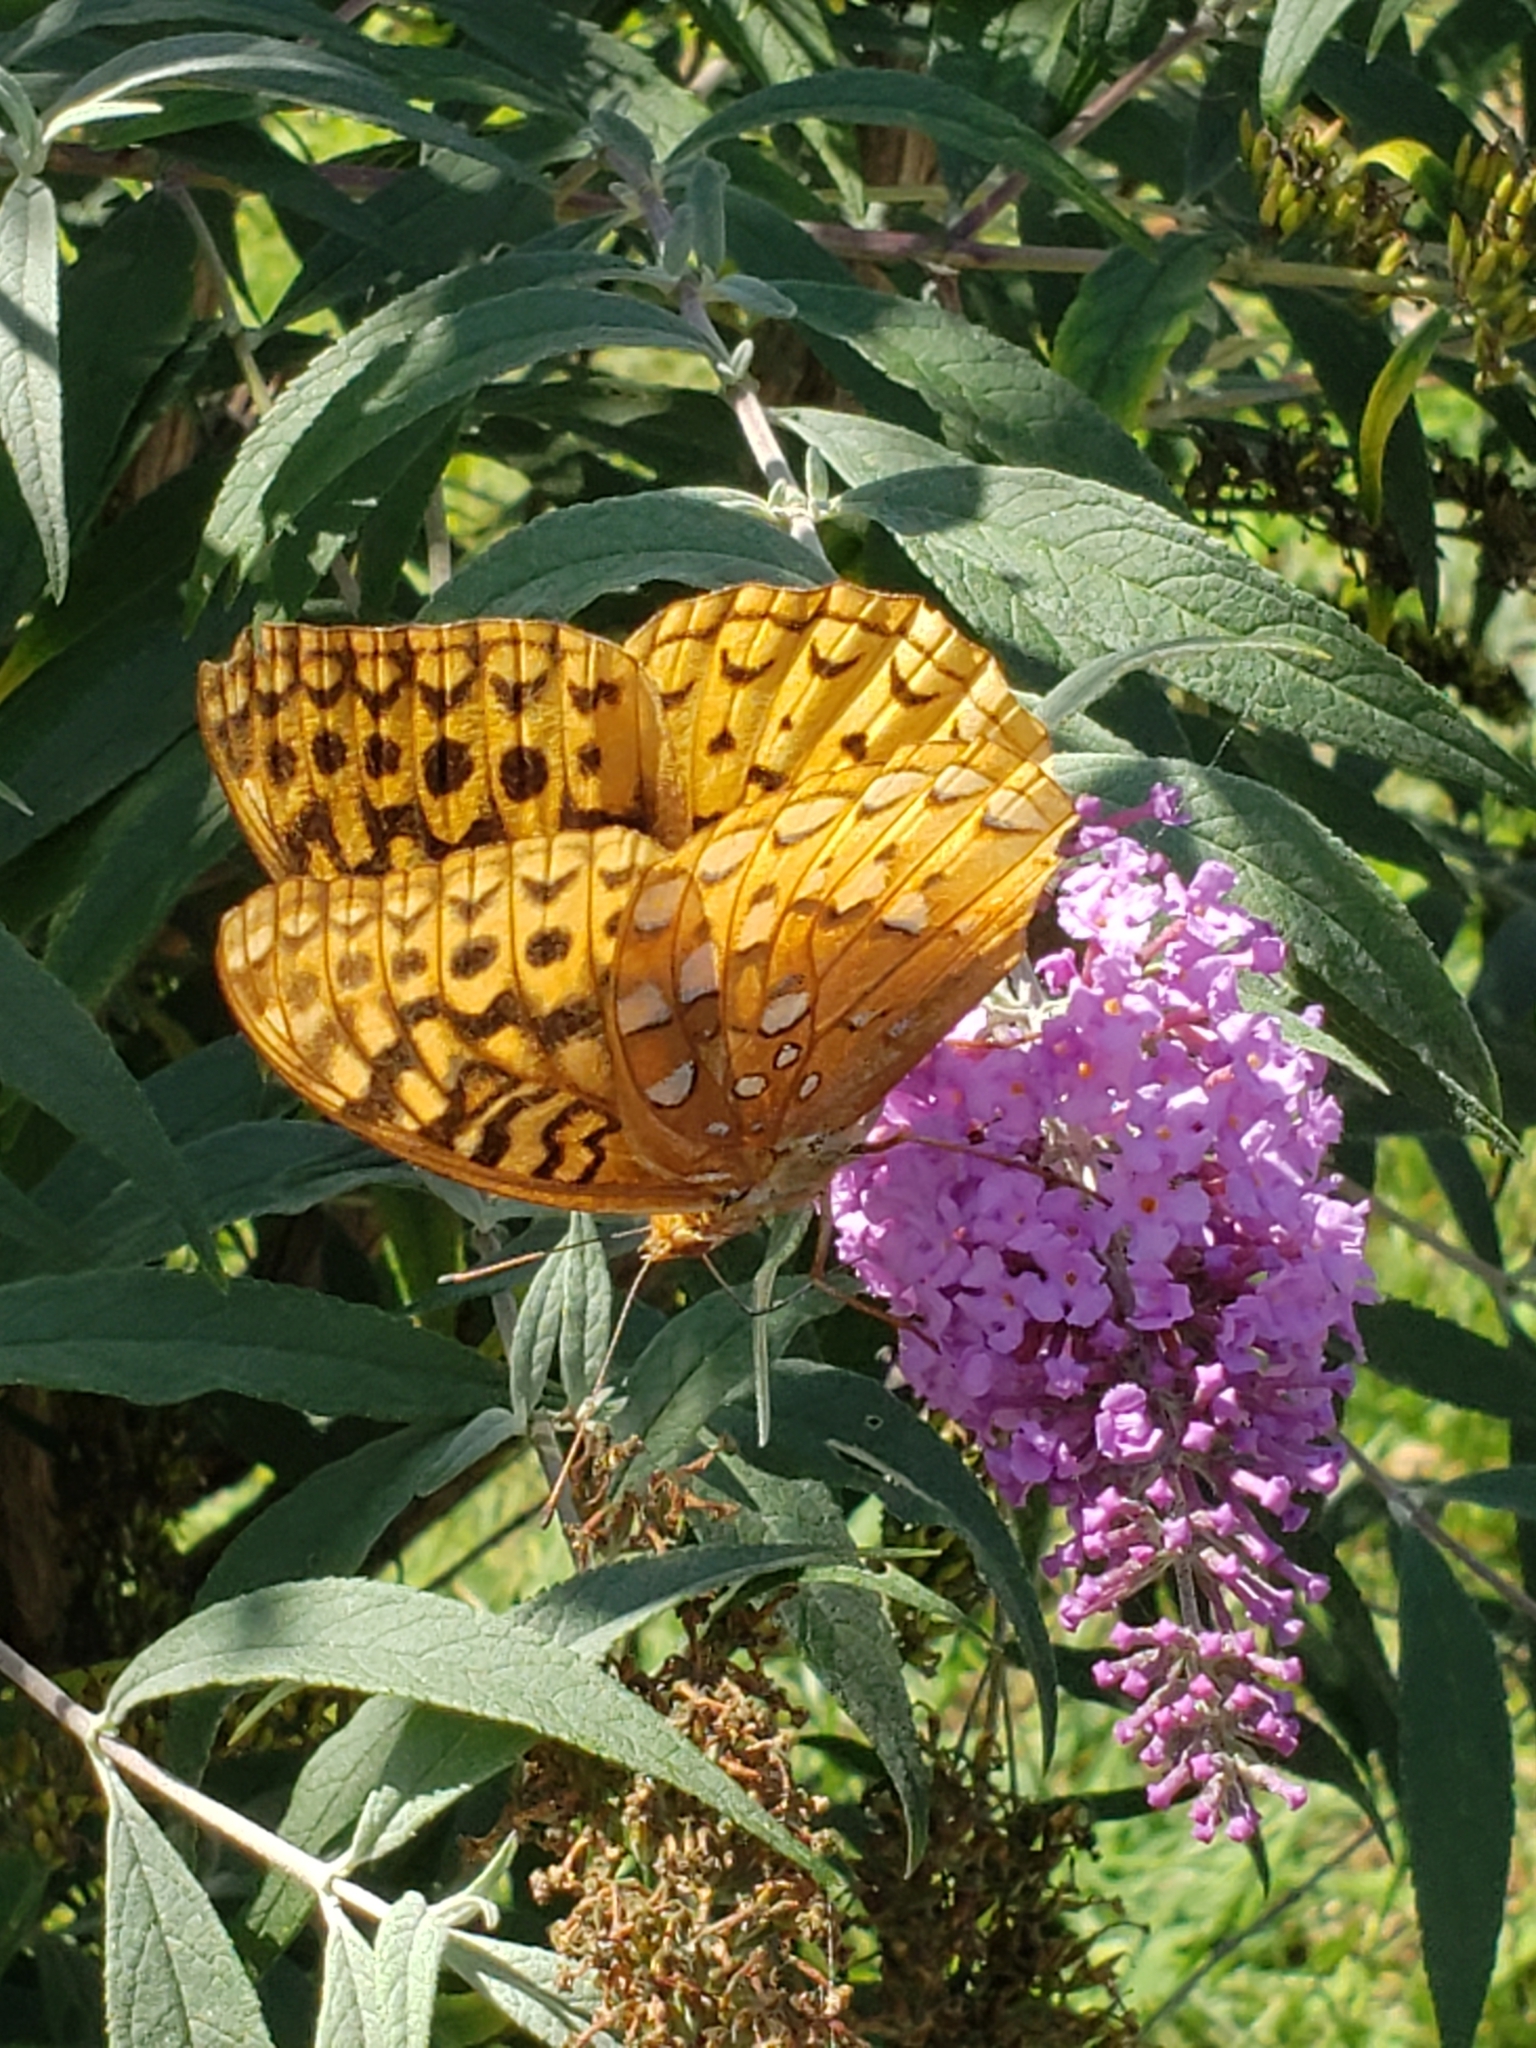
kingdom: Animalia
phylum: Arthropoda
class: Insecta
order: Lepidoptera
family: Nymphalidae
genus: Speyeria
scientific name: Speyeria cybele
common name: Great spangled fritillary
